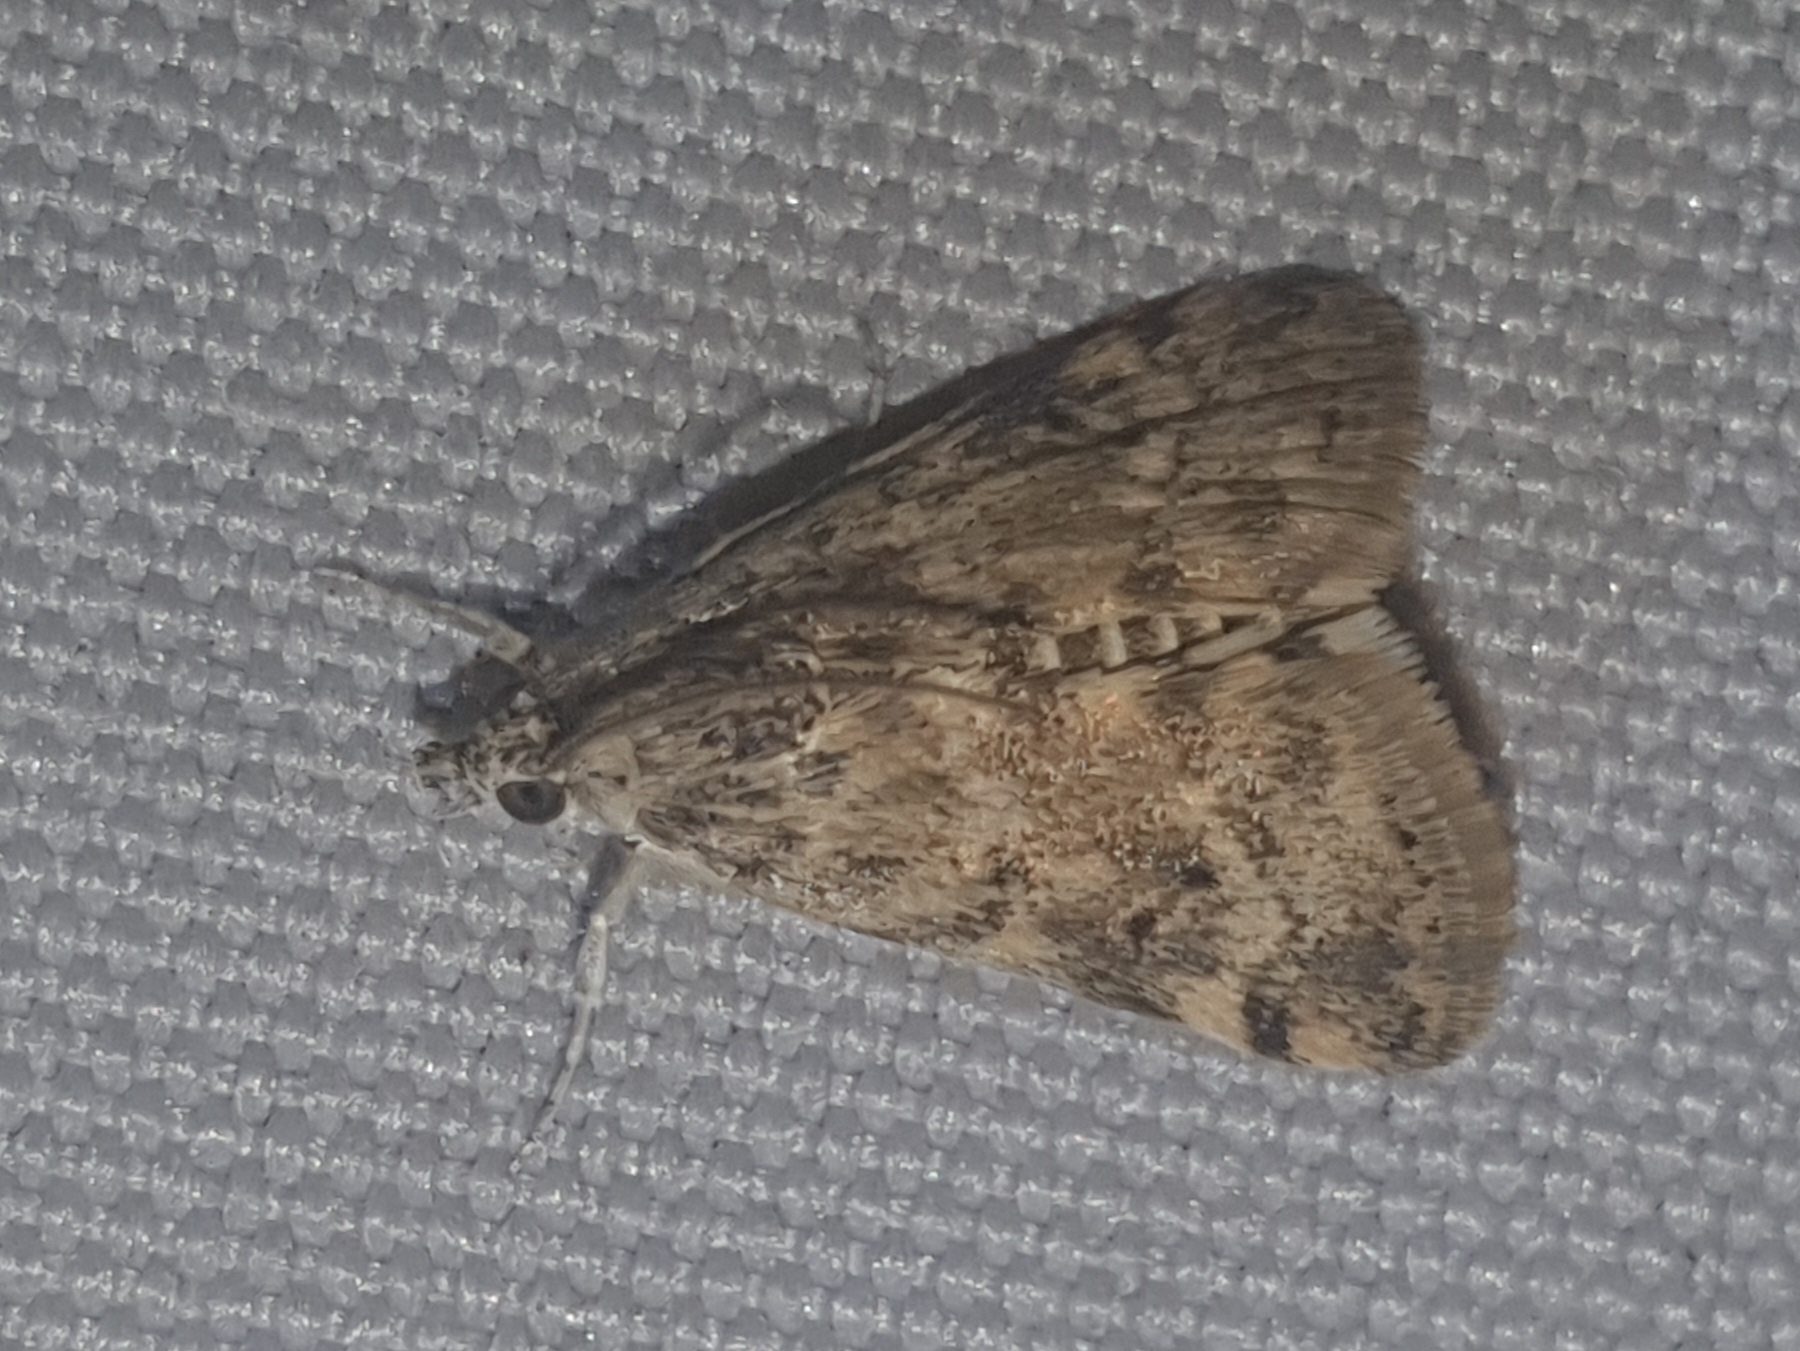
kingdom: Animalia
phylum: Arthropoda
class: Insecta
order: Lepidoptera
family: Crambidae
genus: Noctuelia
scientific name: Noctuelia Aporodes floralis
